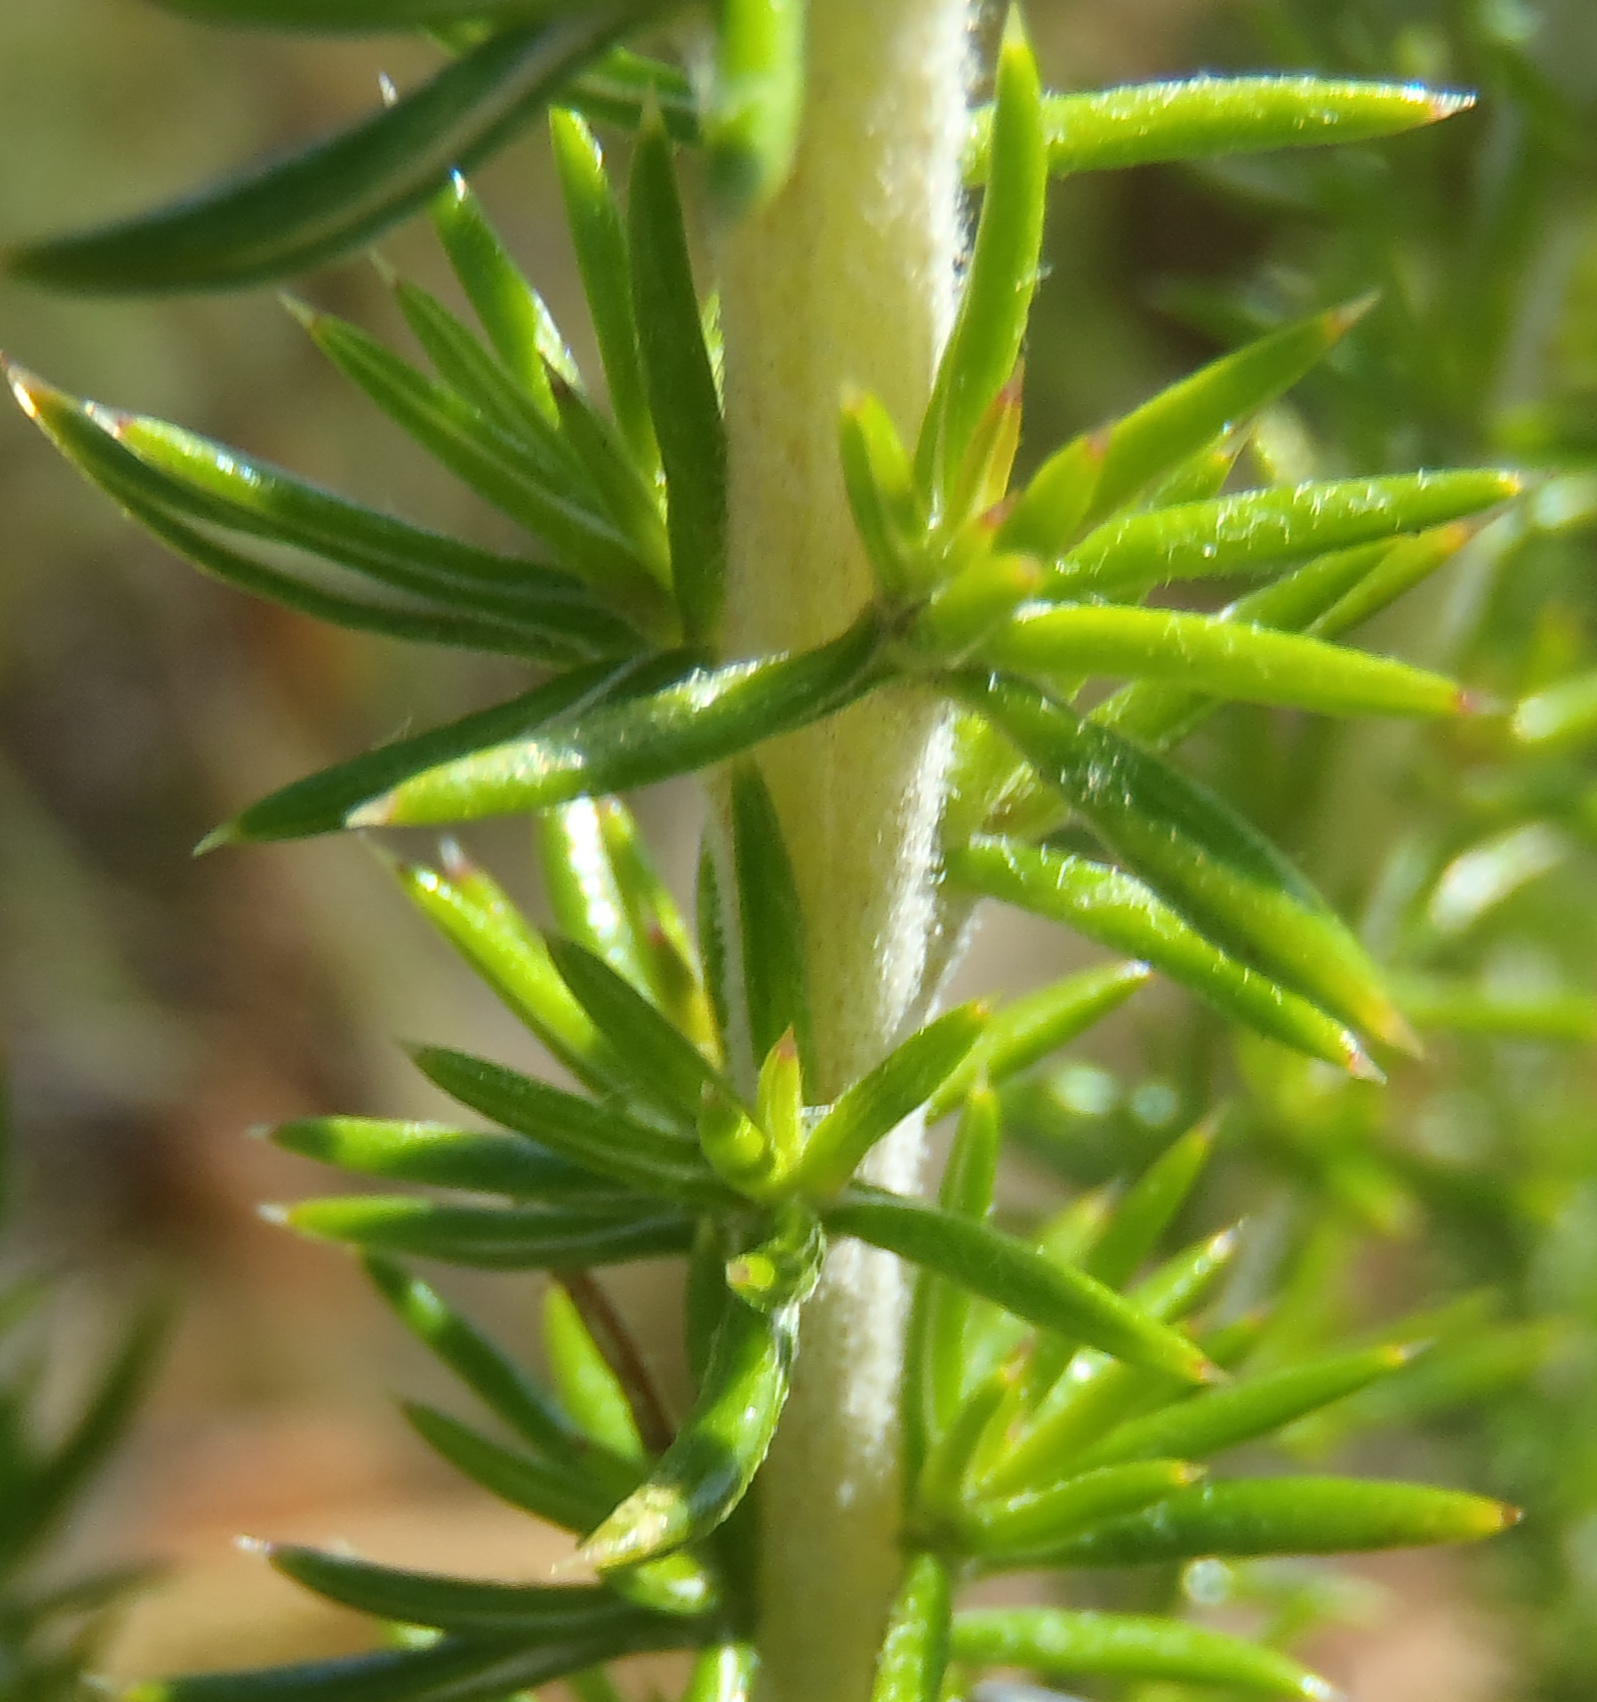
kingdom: Plantae
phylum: Tracheophyta
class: Magnoliopsida
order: Asterales
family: Asteraceae
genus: Metalasia
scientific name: Metalasia acuta
